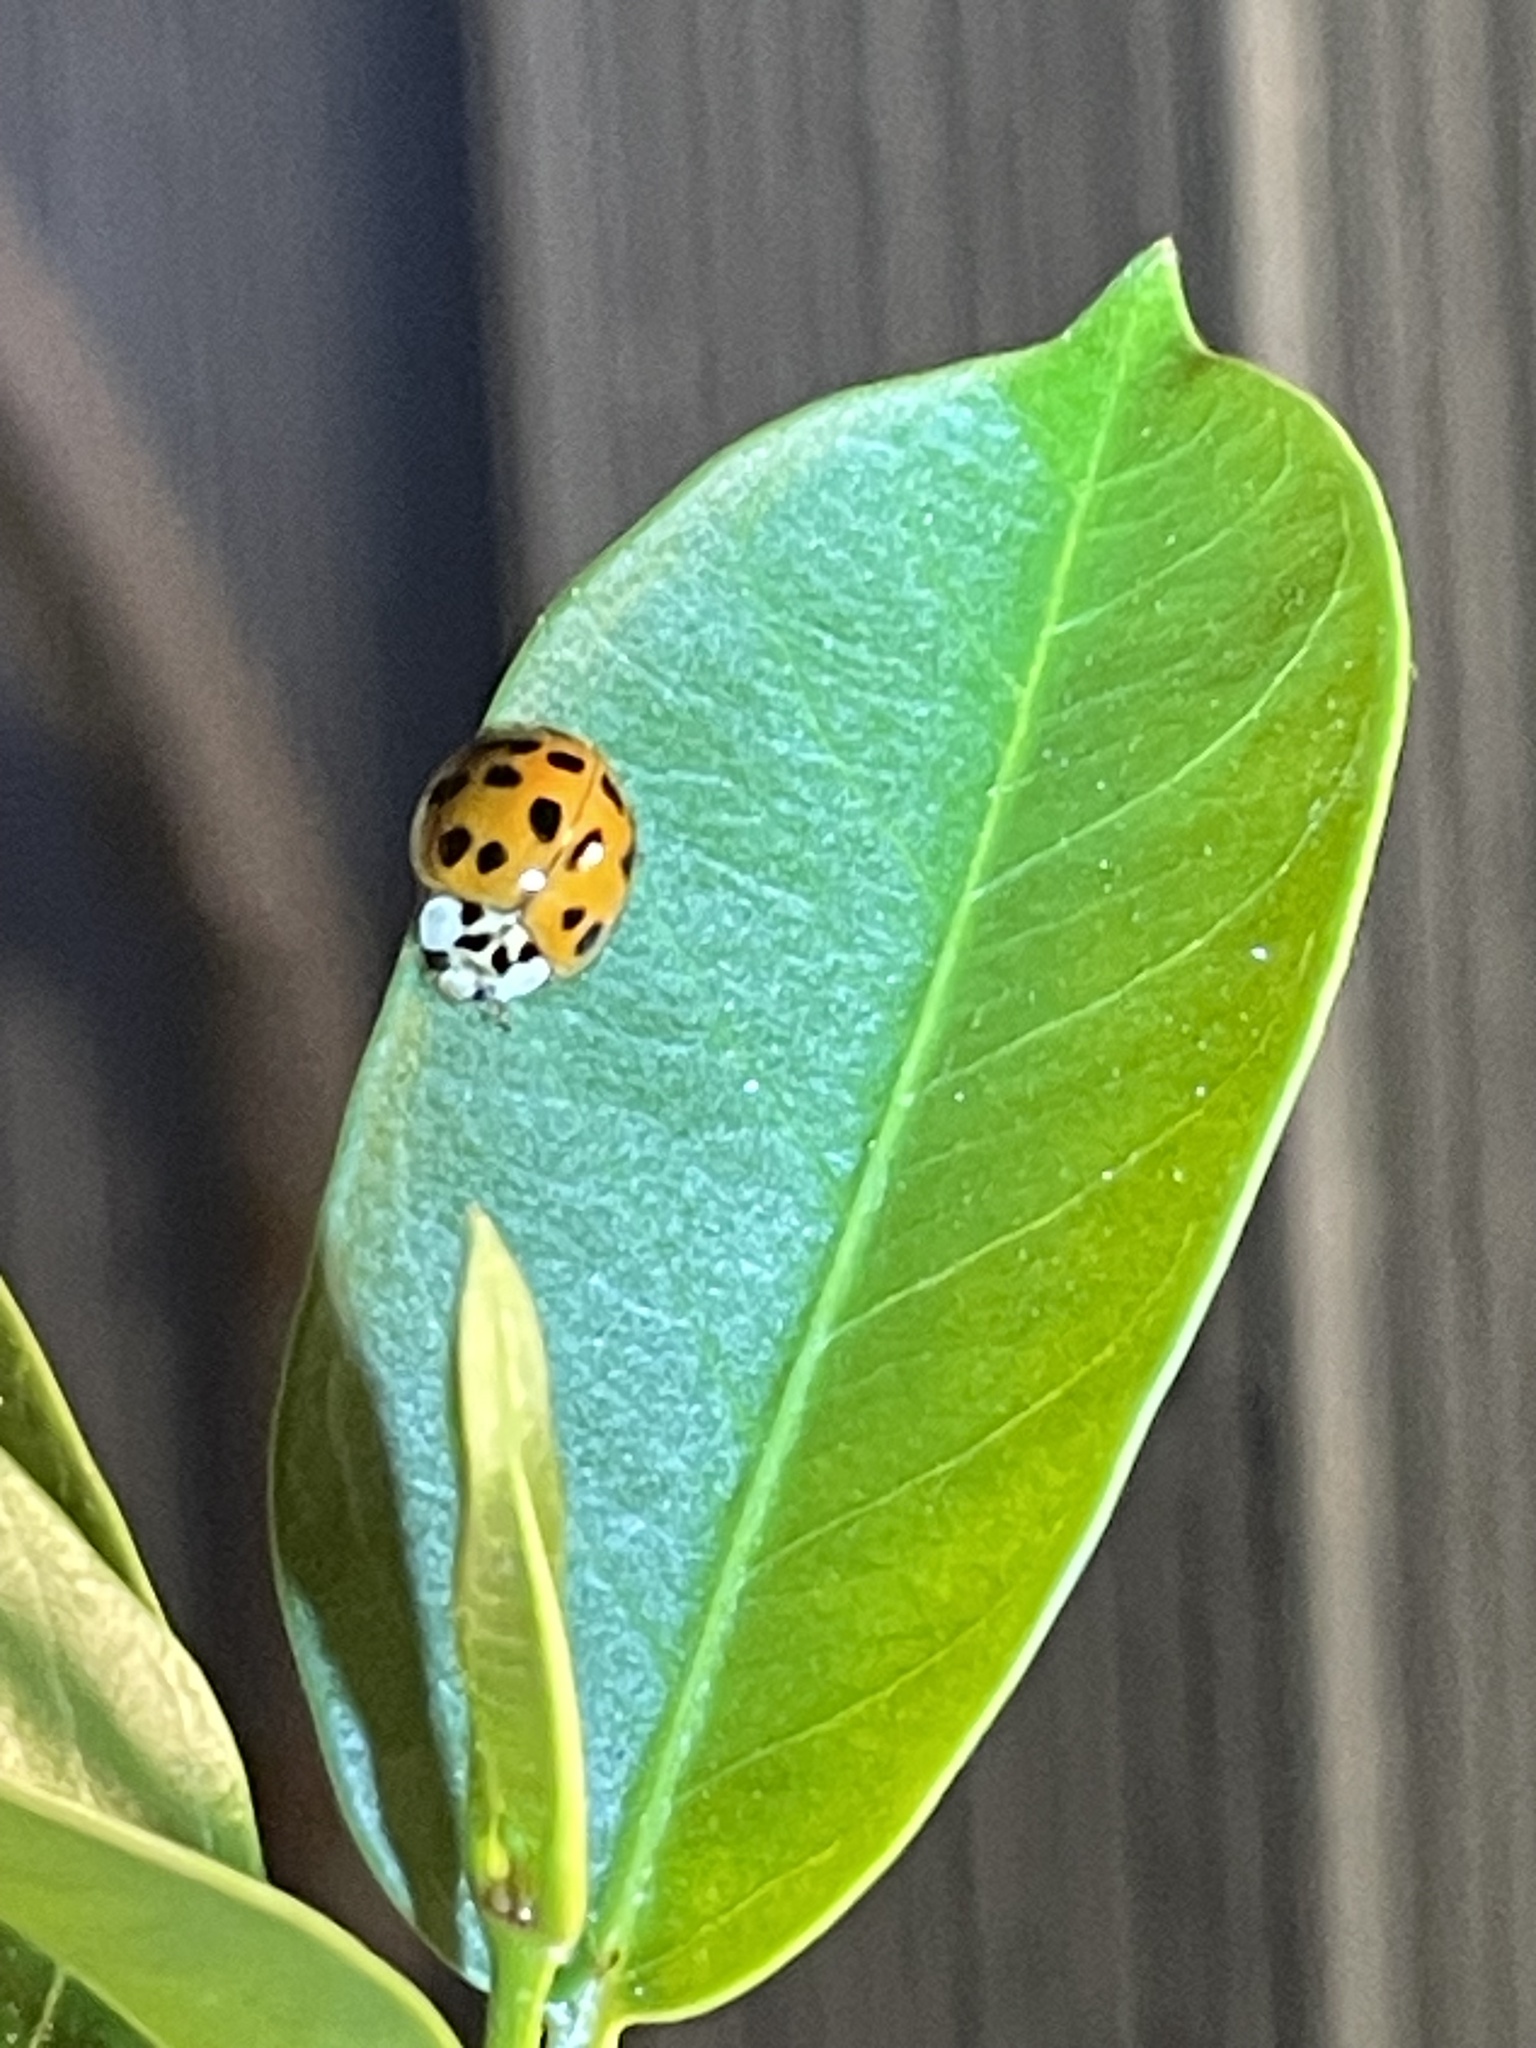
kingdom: Animalia
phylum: Arthropoda
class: Insecta
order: Coleoptera
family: Coccinellidae
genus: Harmonia
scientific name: Harmonia axyridis
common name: Harlequin ladybird
